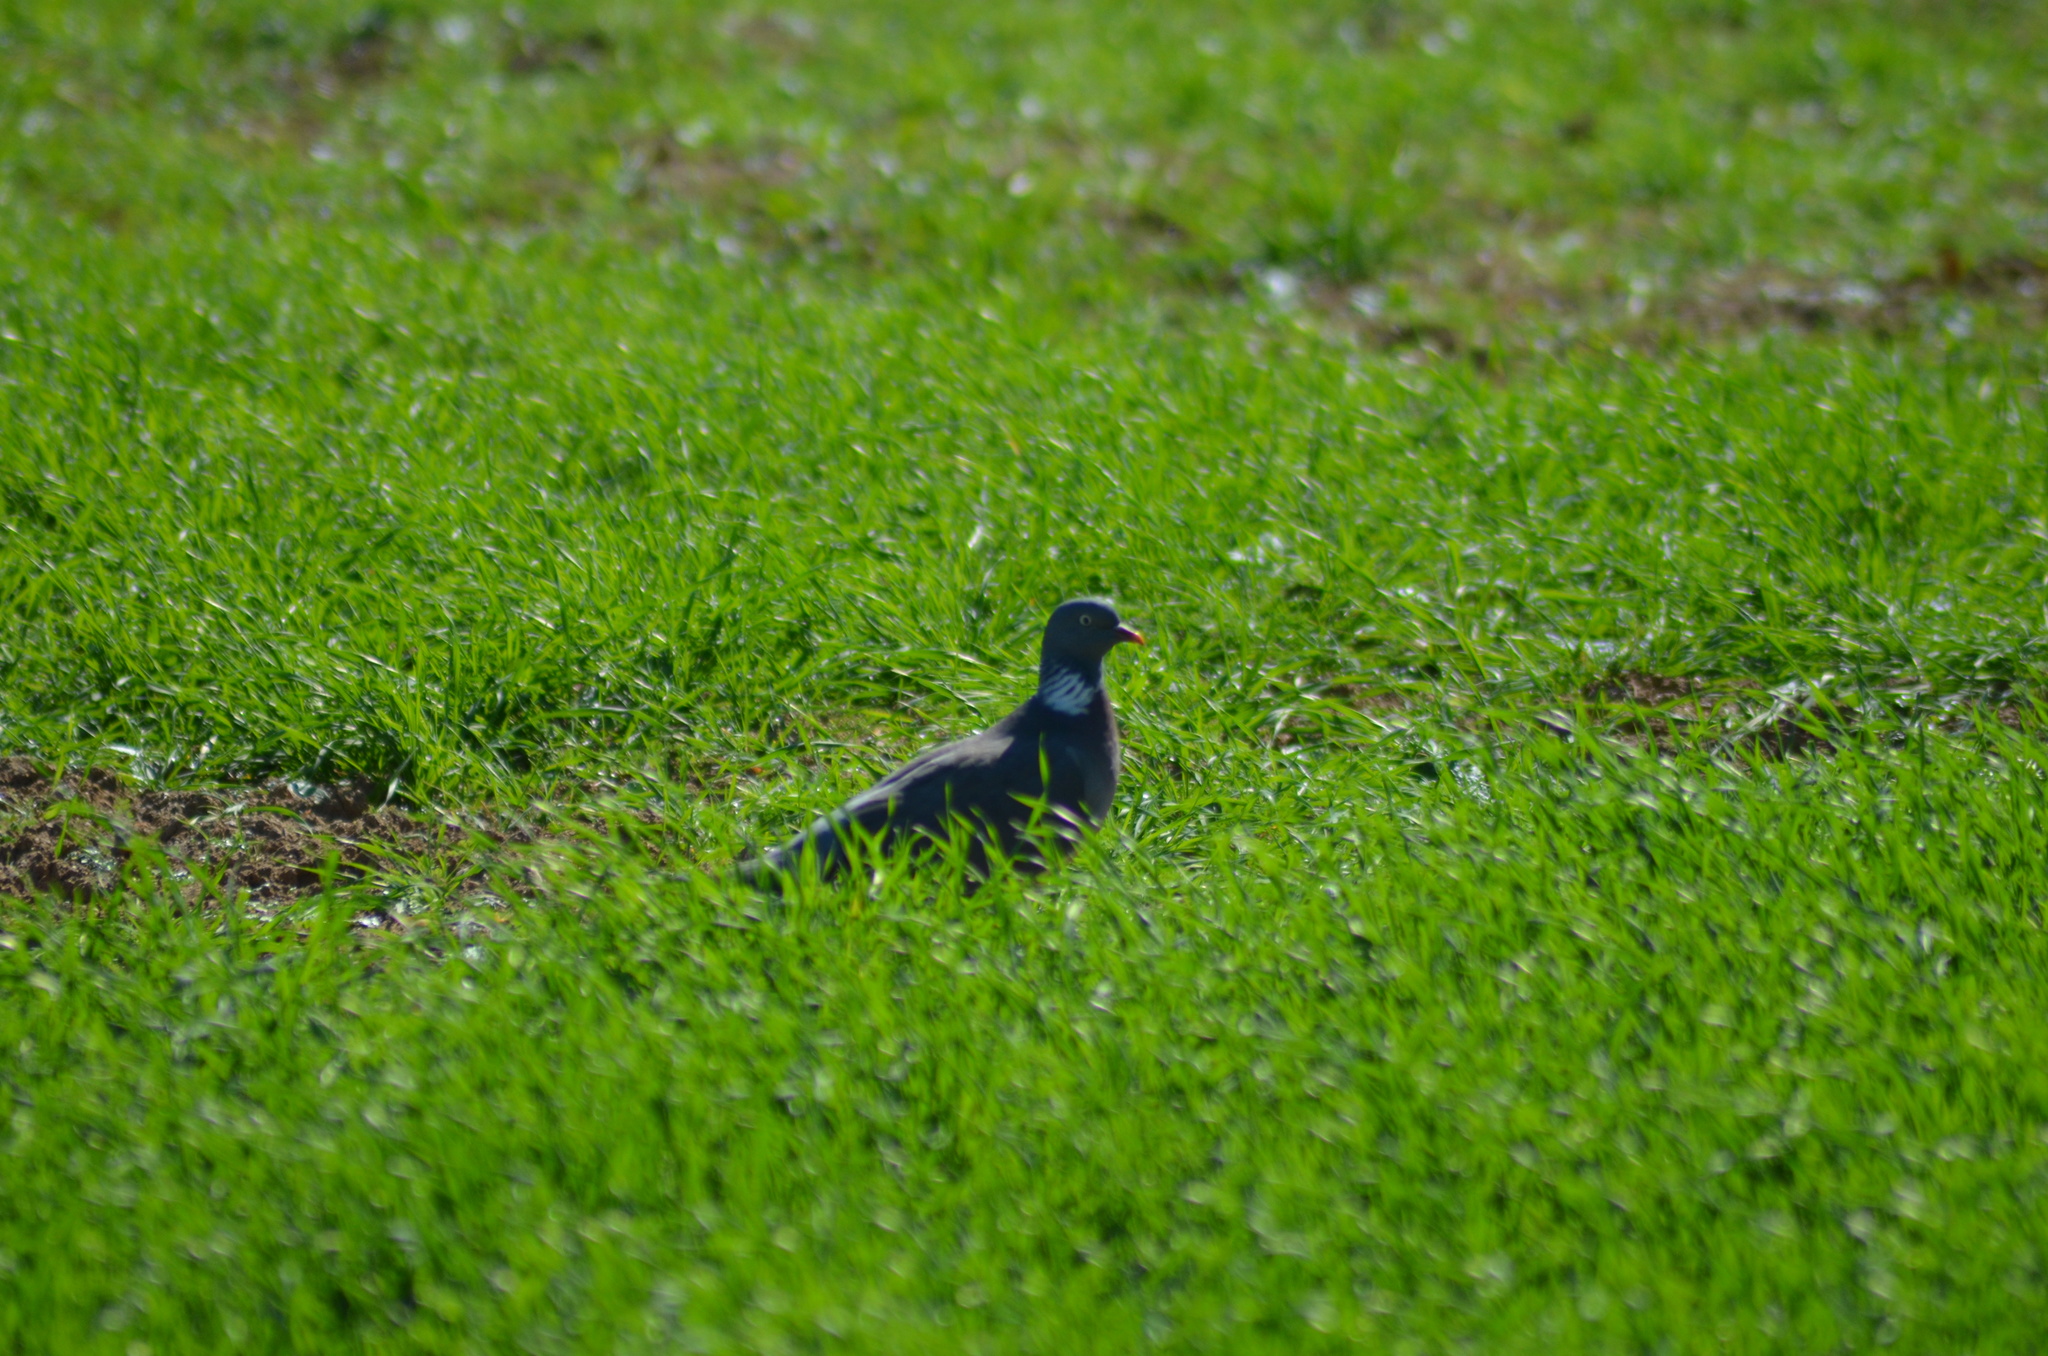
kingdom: Animalia
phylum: Chordata
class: Aves
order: Columbiformes
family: Columbidae
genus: Columba
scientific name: Columba palumbus
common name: Common wood pigeon
